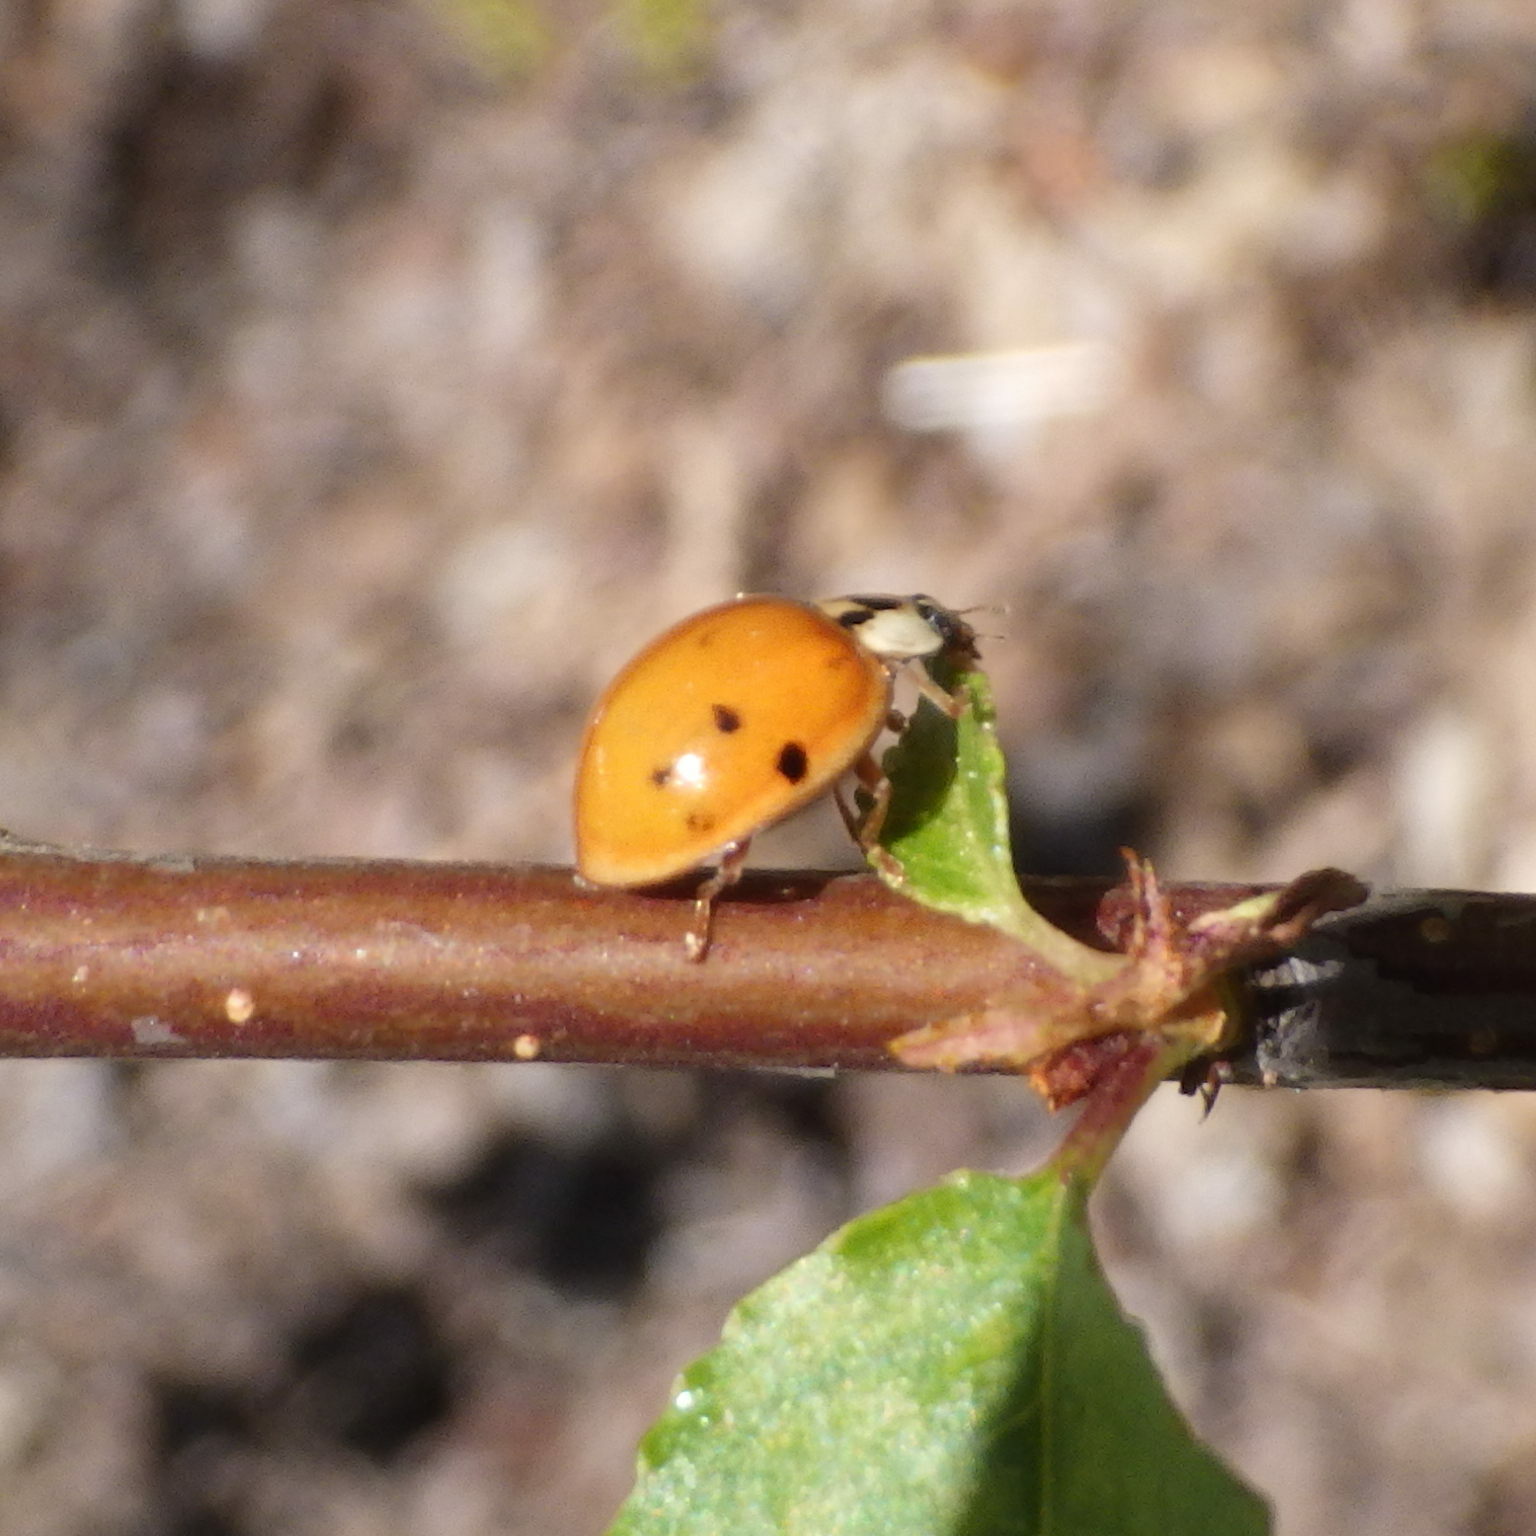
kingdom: Animalia
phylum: Arthropoda
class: Insecta
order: Coleoptera
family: Coccinellidae
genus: Harmonia
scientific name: Harmonia axyridis
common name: Harlequin ladybird
